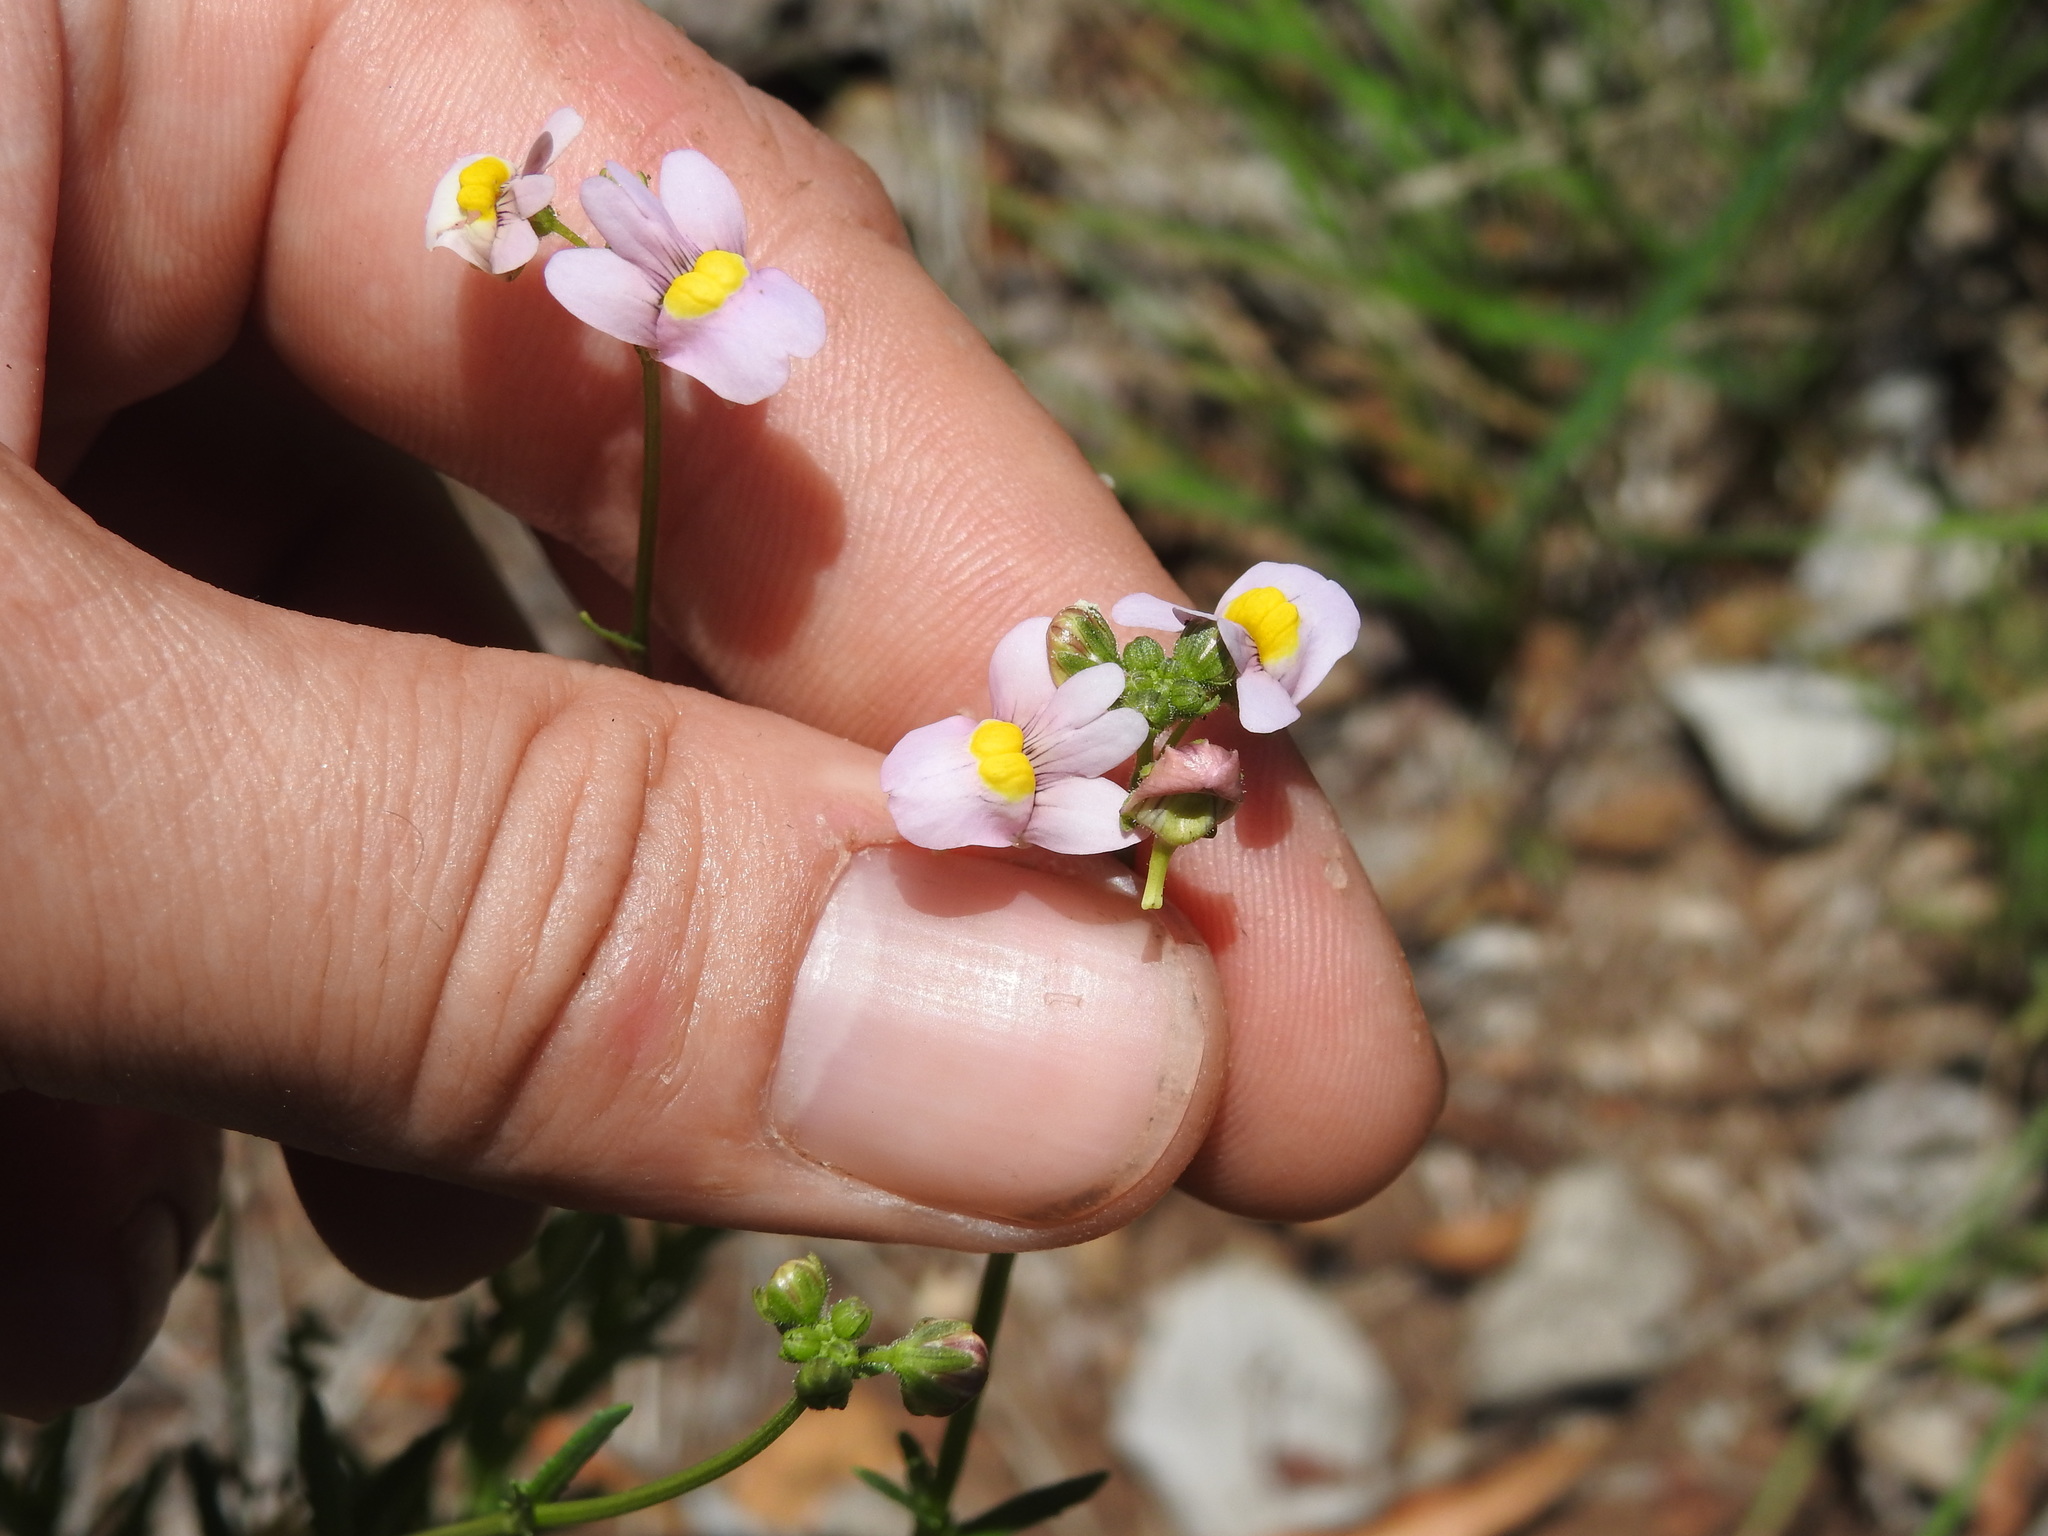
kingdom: Plantae
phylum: Tracheophyta
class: Magnoliopsida
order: Lamiales
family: Scrophulariaceae
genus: Nemesia
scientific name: Nemesia fruticans
